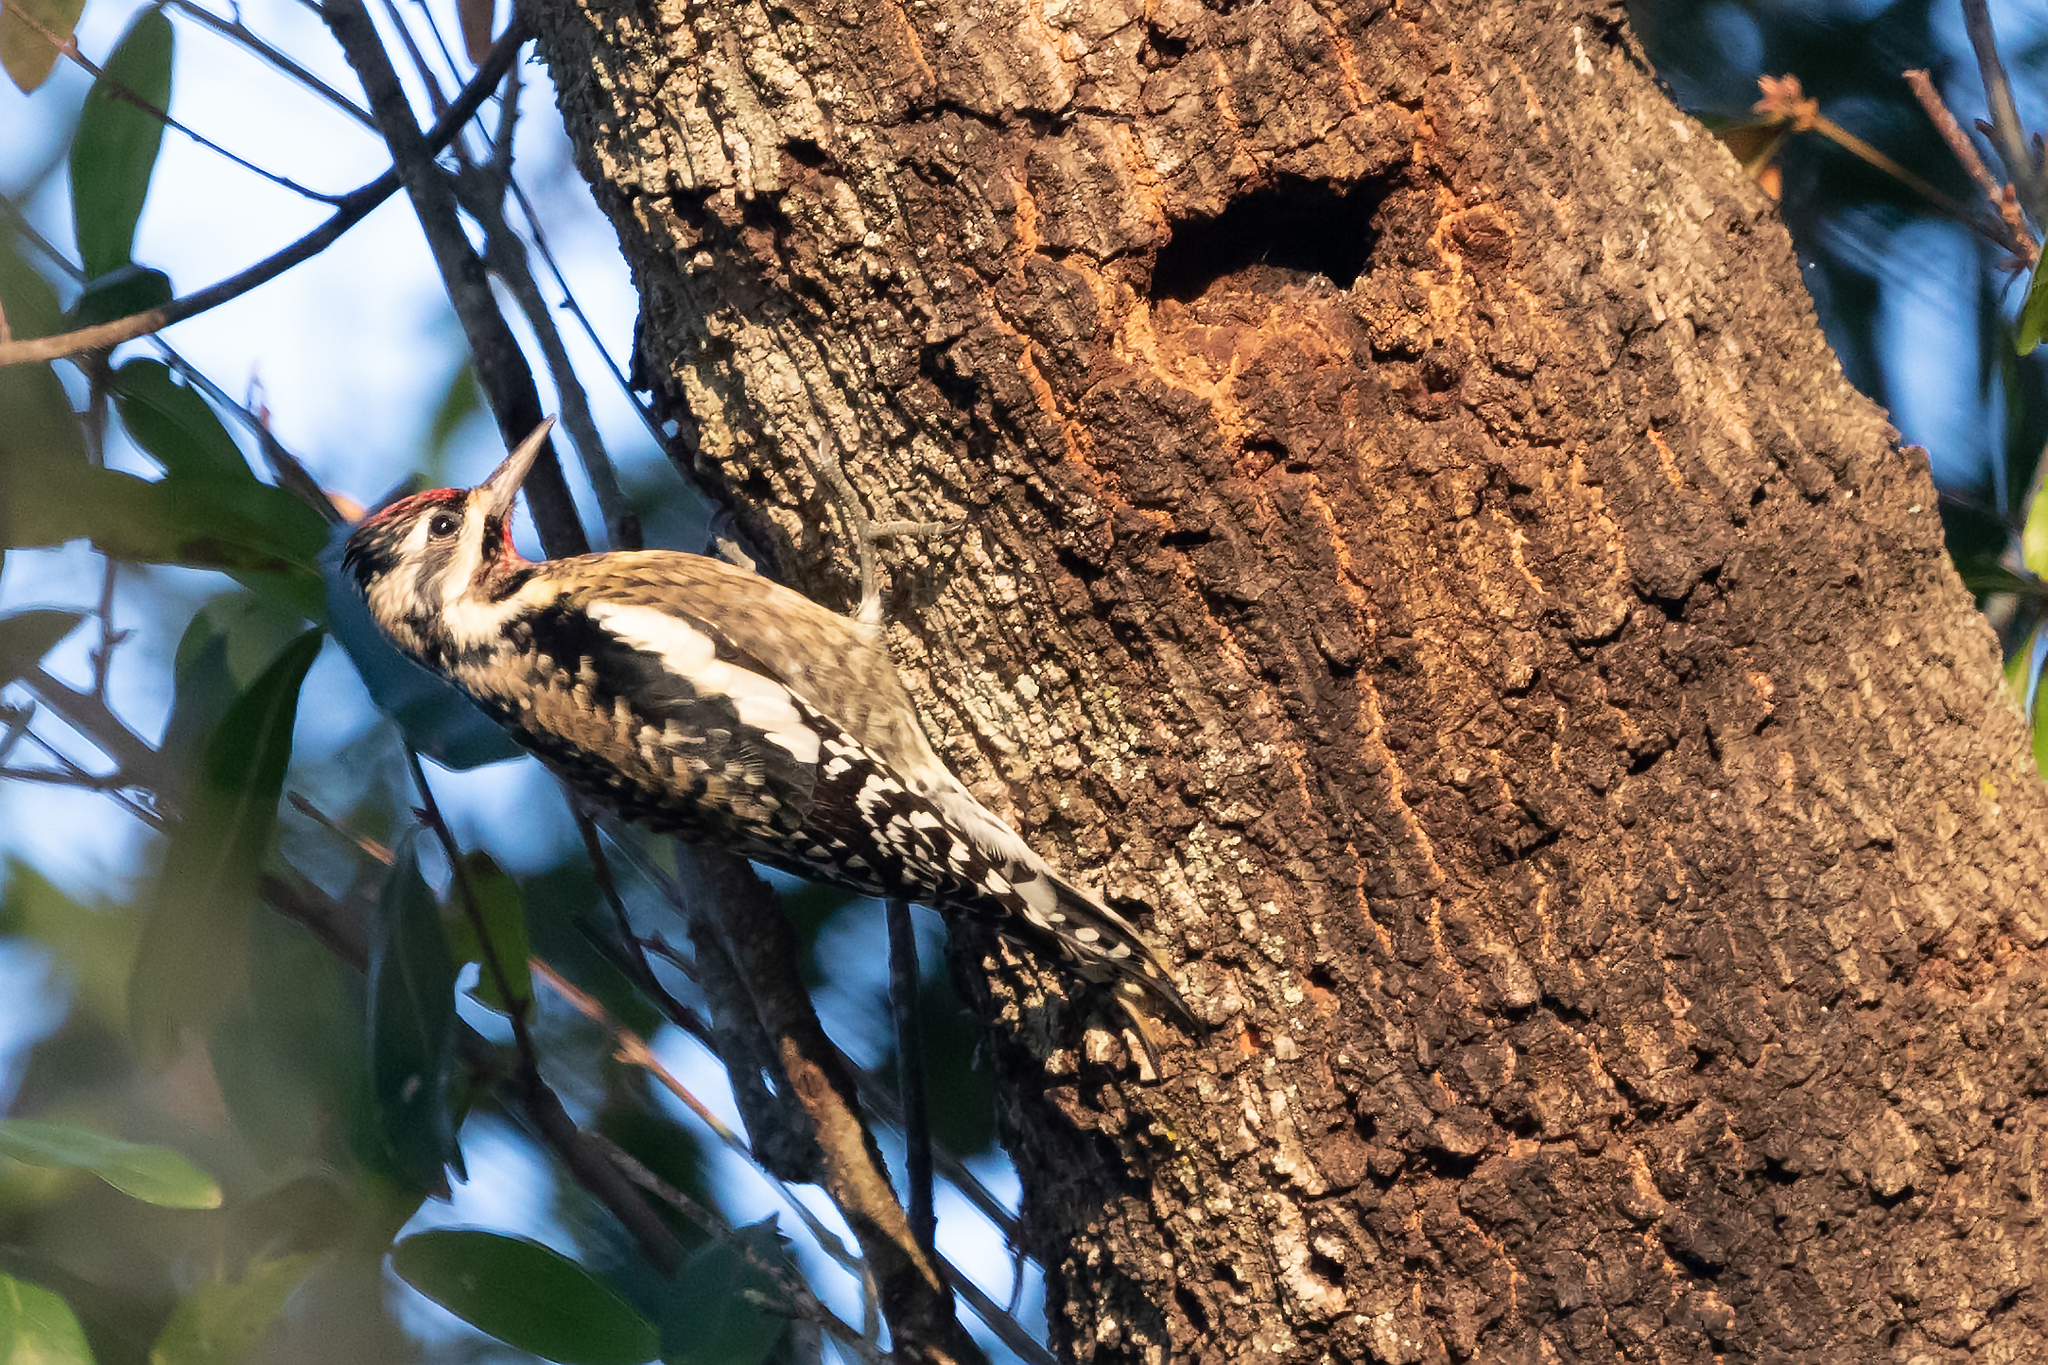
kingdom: Animalia
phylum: Chordata
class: Aves
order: Piciformes
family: Picidae
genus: Sphyrapicus
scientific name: Sphyrapicus varius
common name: Yellow-bellied sapsucker
